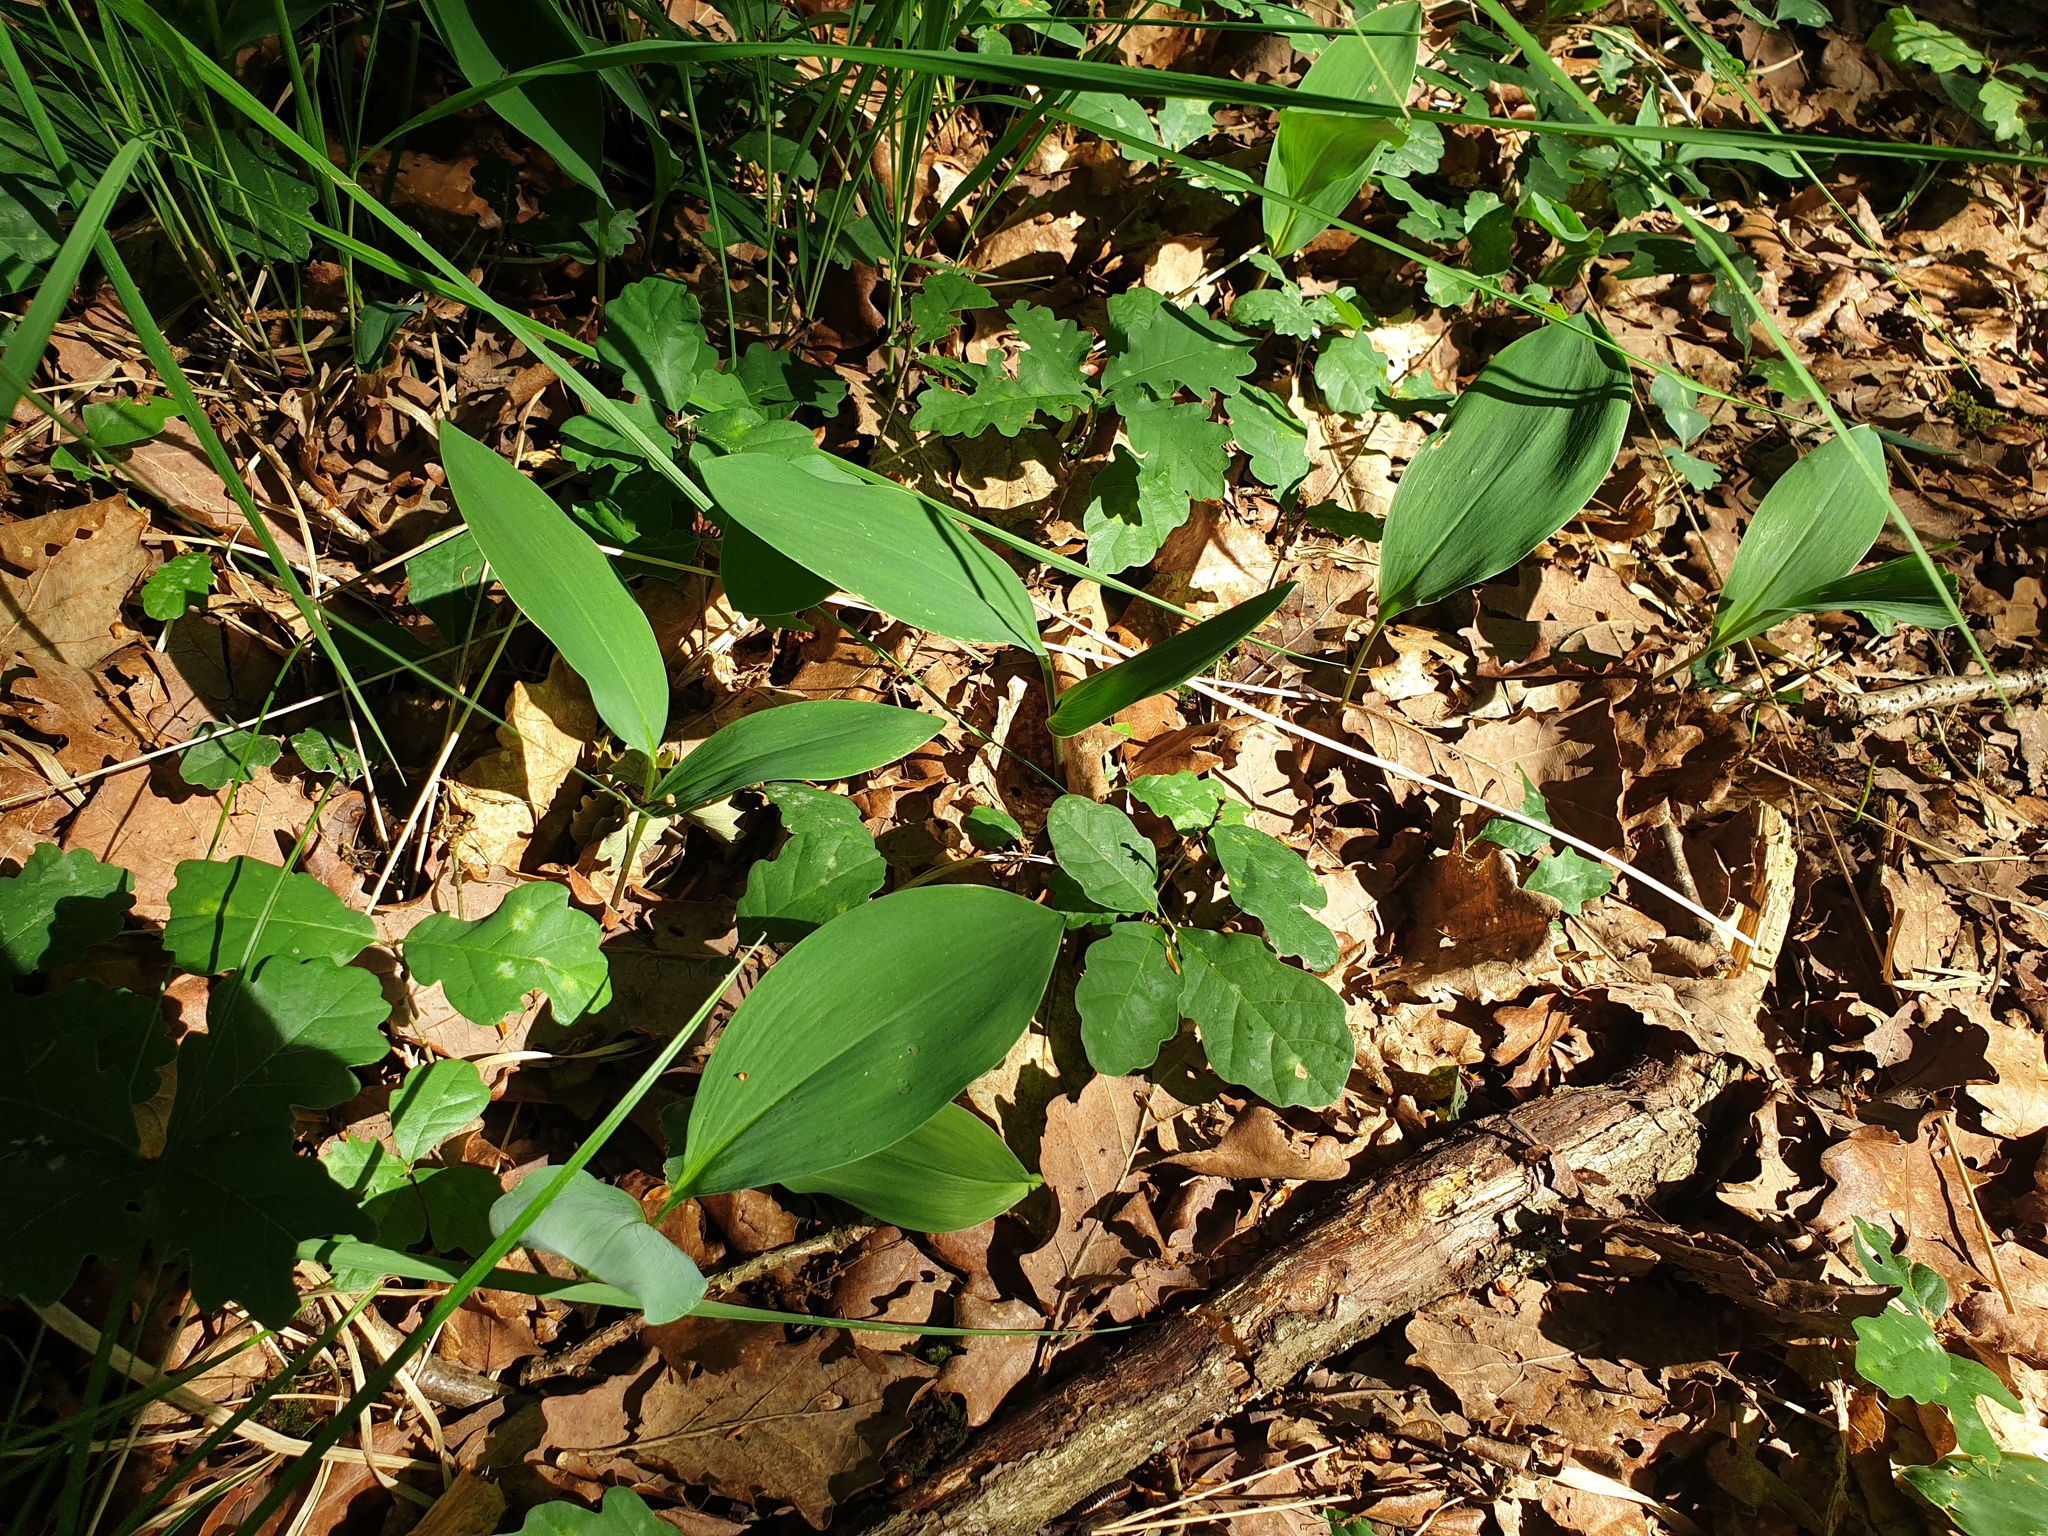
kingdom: Plantae
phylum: Tracheophyta
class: Liliopsida
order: Asparagales
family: Asparagaceae
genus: Convallaria
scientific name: Convallaria majalis
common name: Lily-of-the-valley
